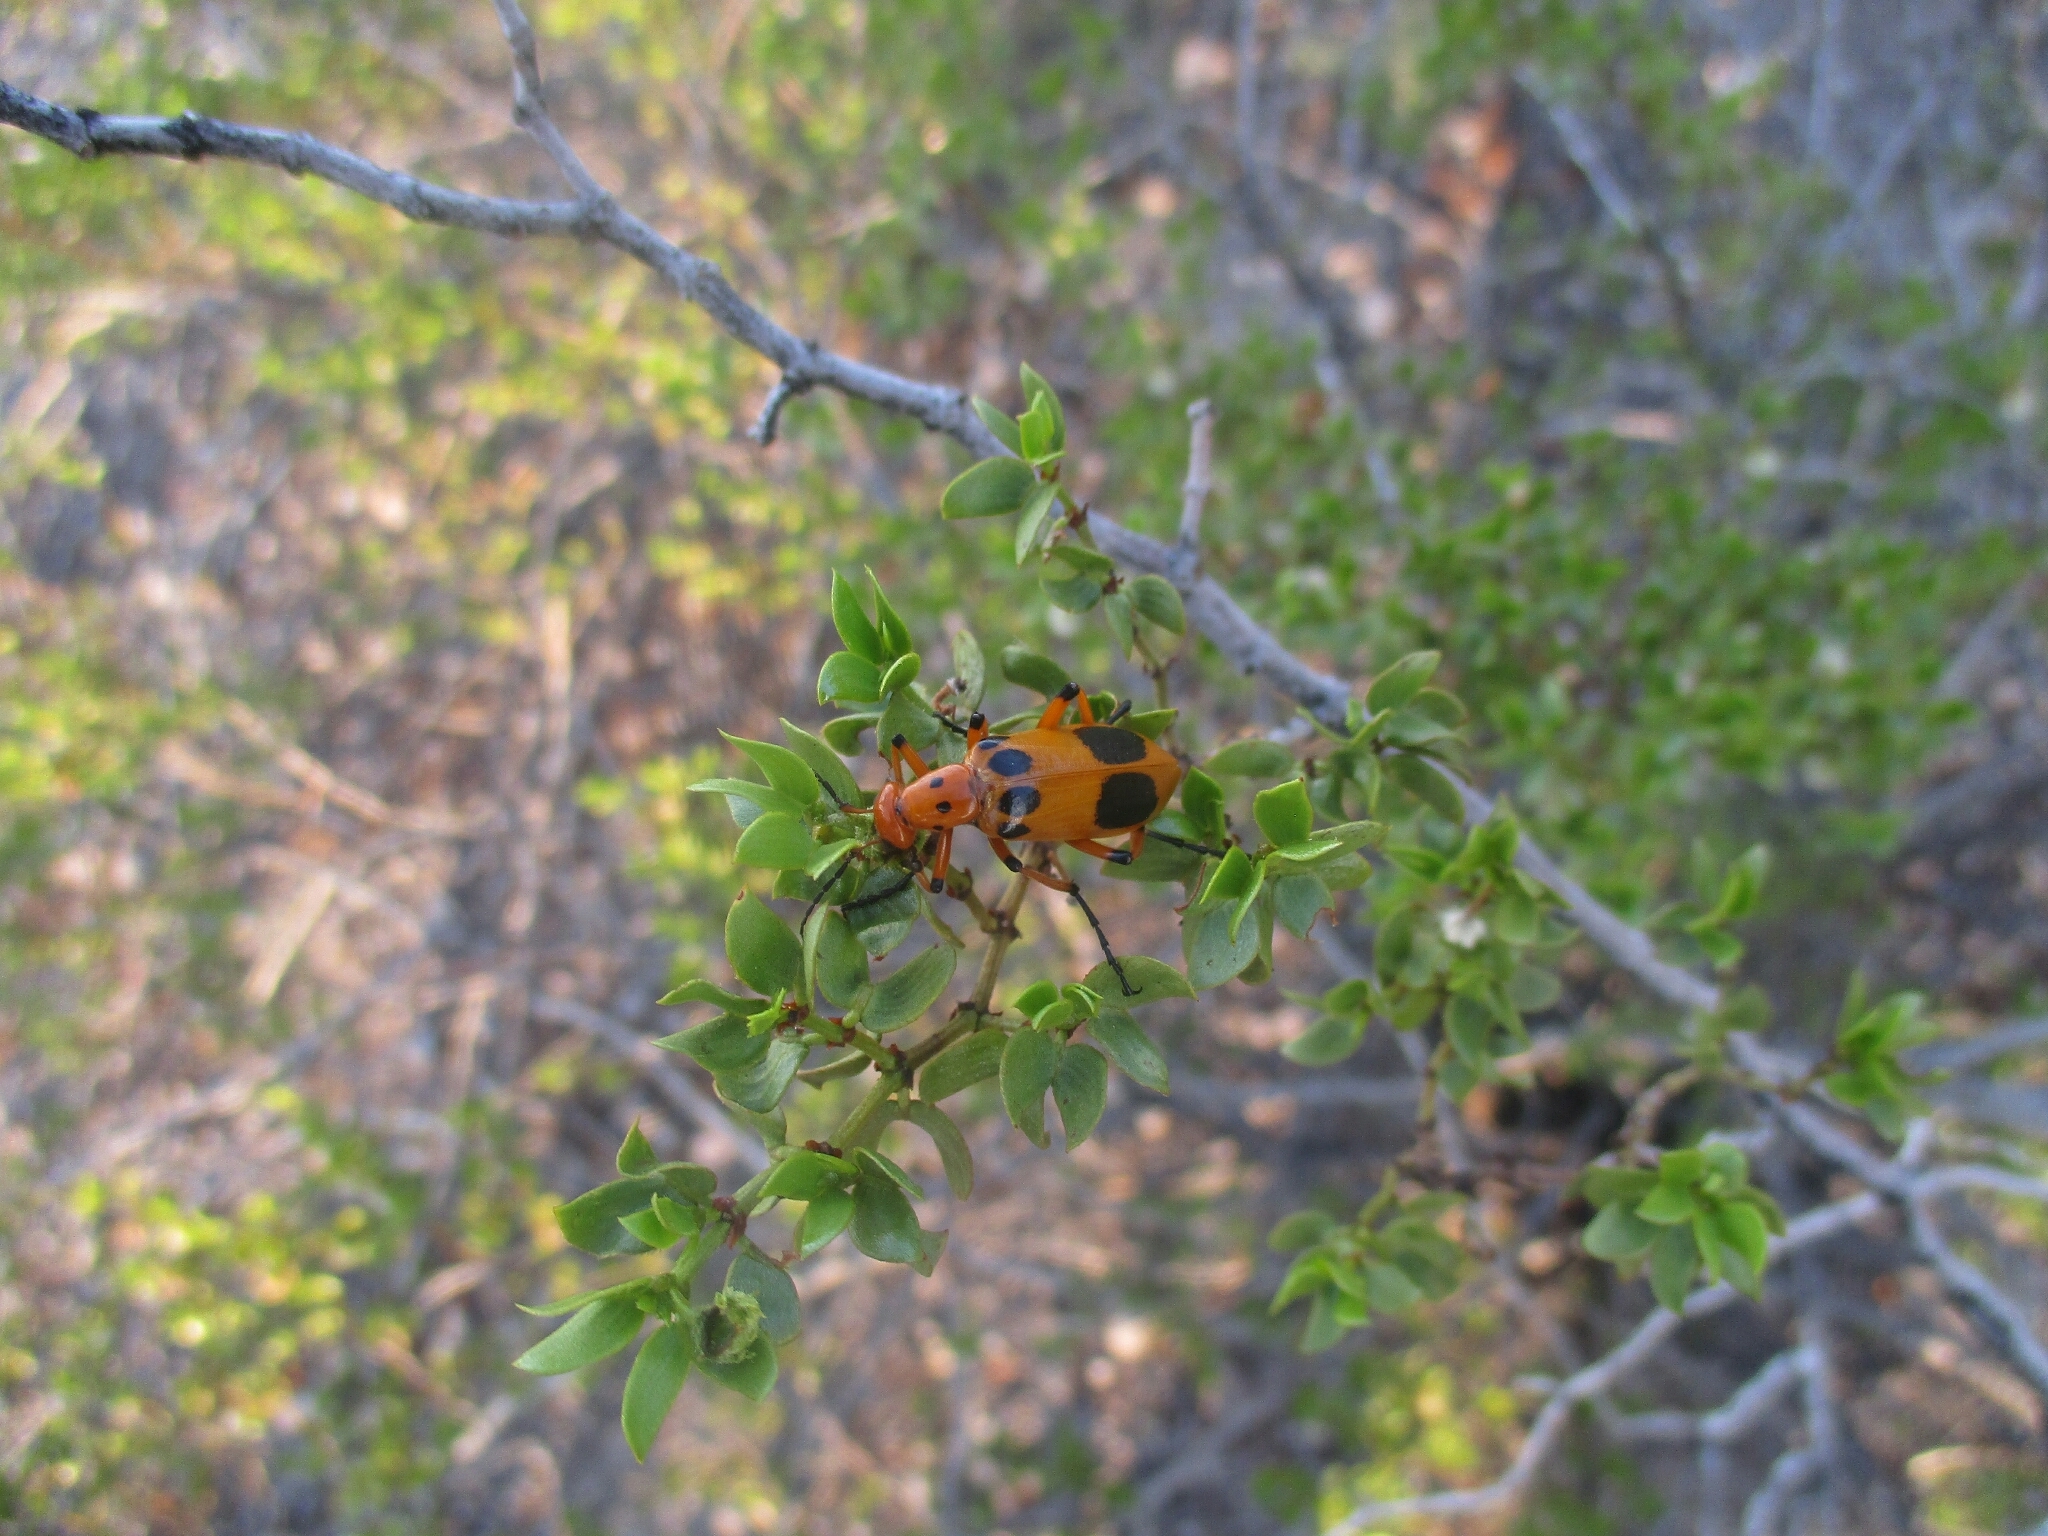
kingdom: Animalia
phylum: Arthropoda
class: Insecta
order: Coleoptera
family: Meloidae
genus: Pyrota
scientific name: Pyrota postica
